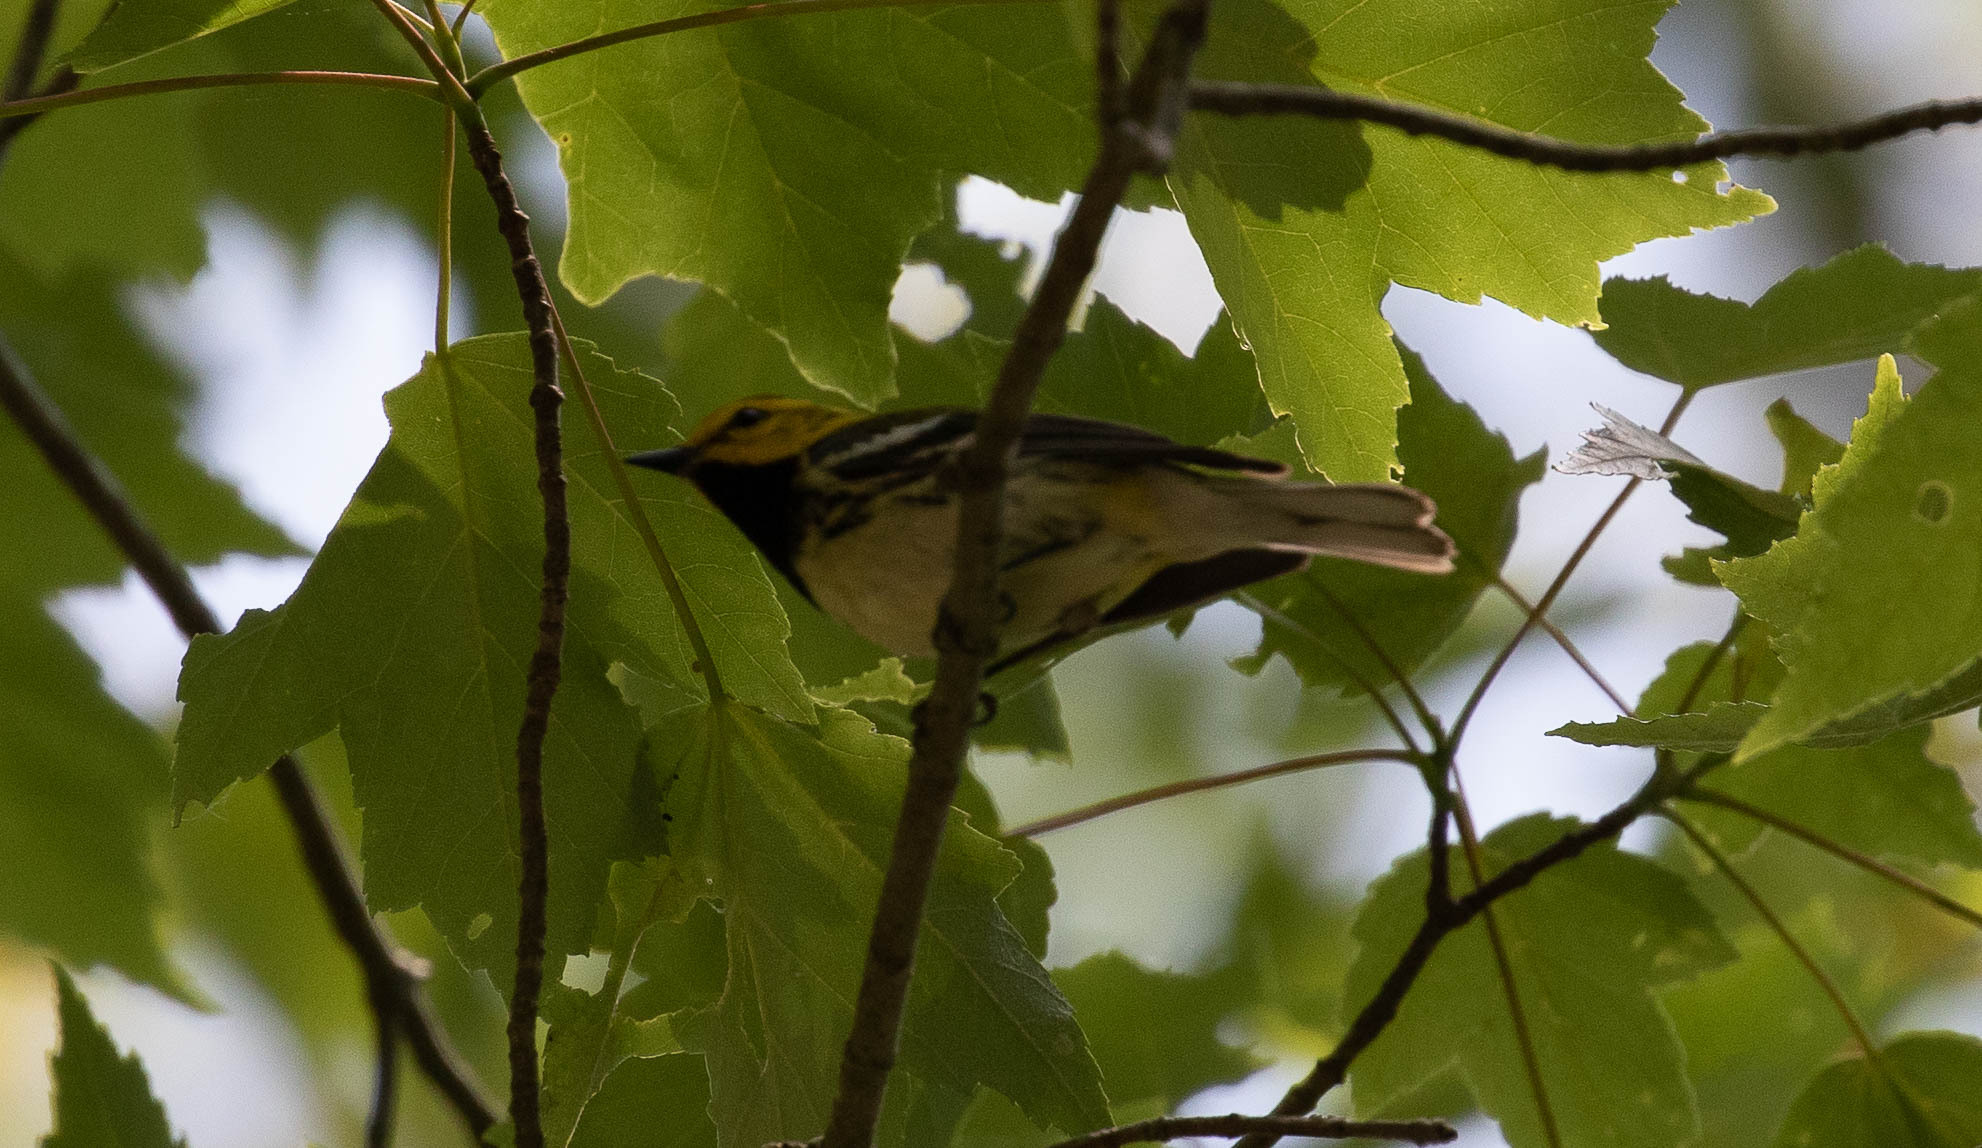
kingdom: Animalia
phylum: Chordata
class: Aves
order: Passeriformes
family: Parulidae
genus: Setophaga
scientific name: Setophaga virens
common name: Black-throated green warbler
